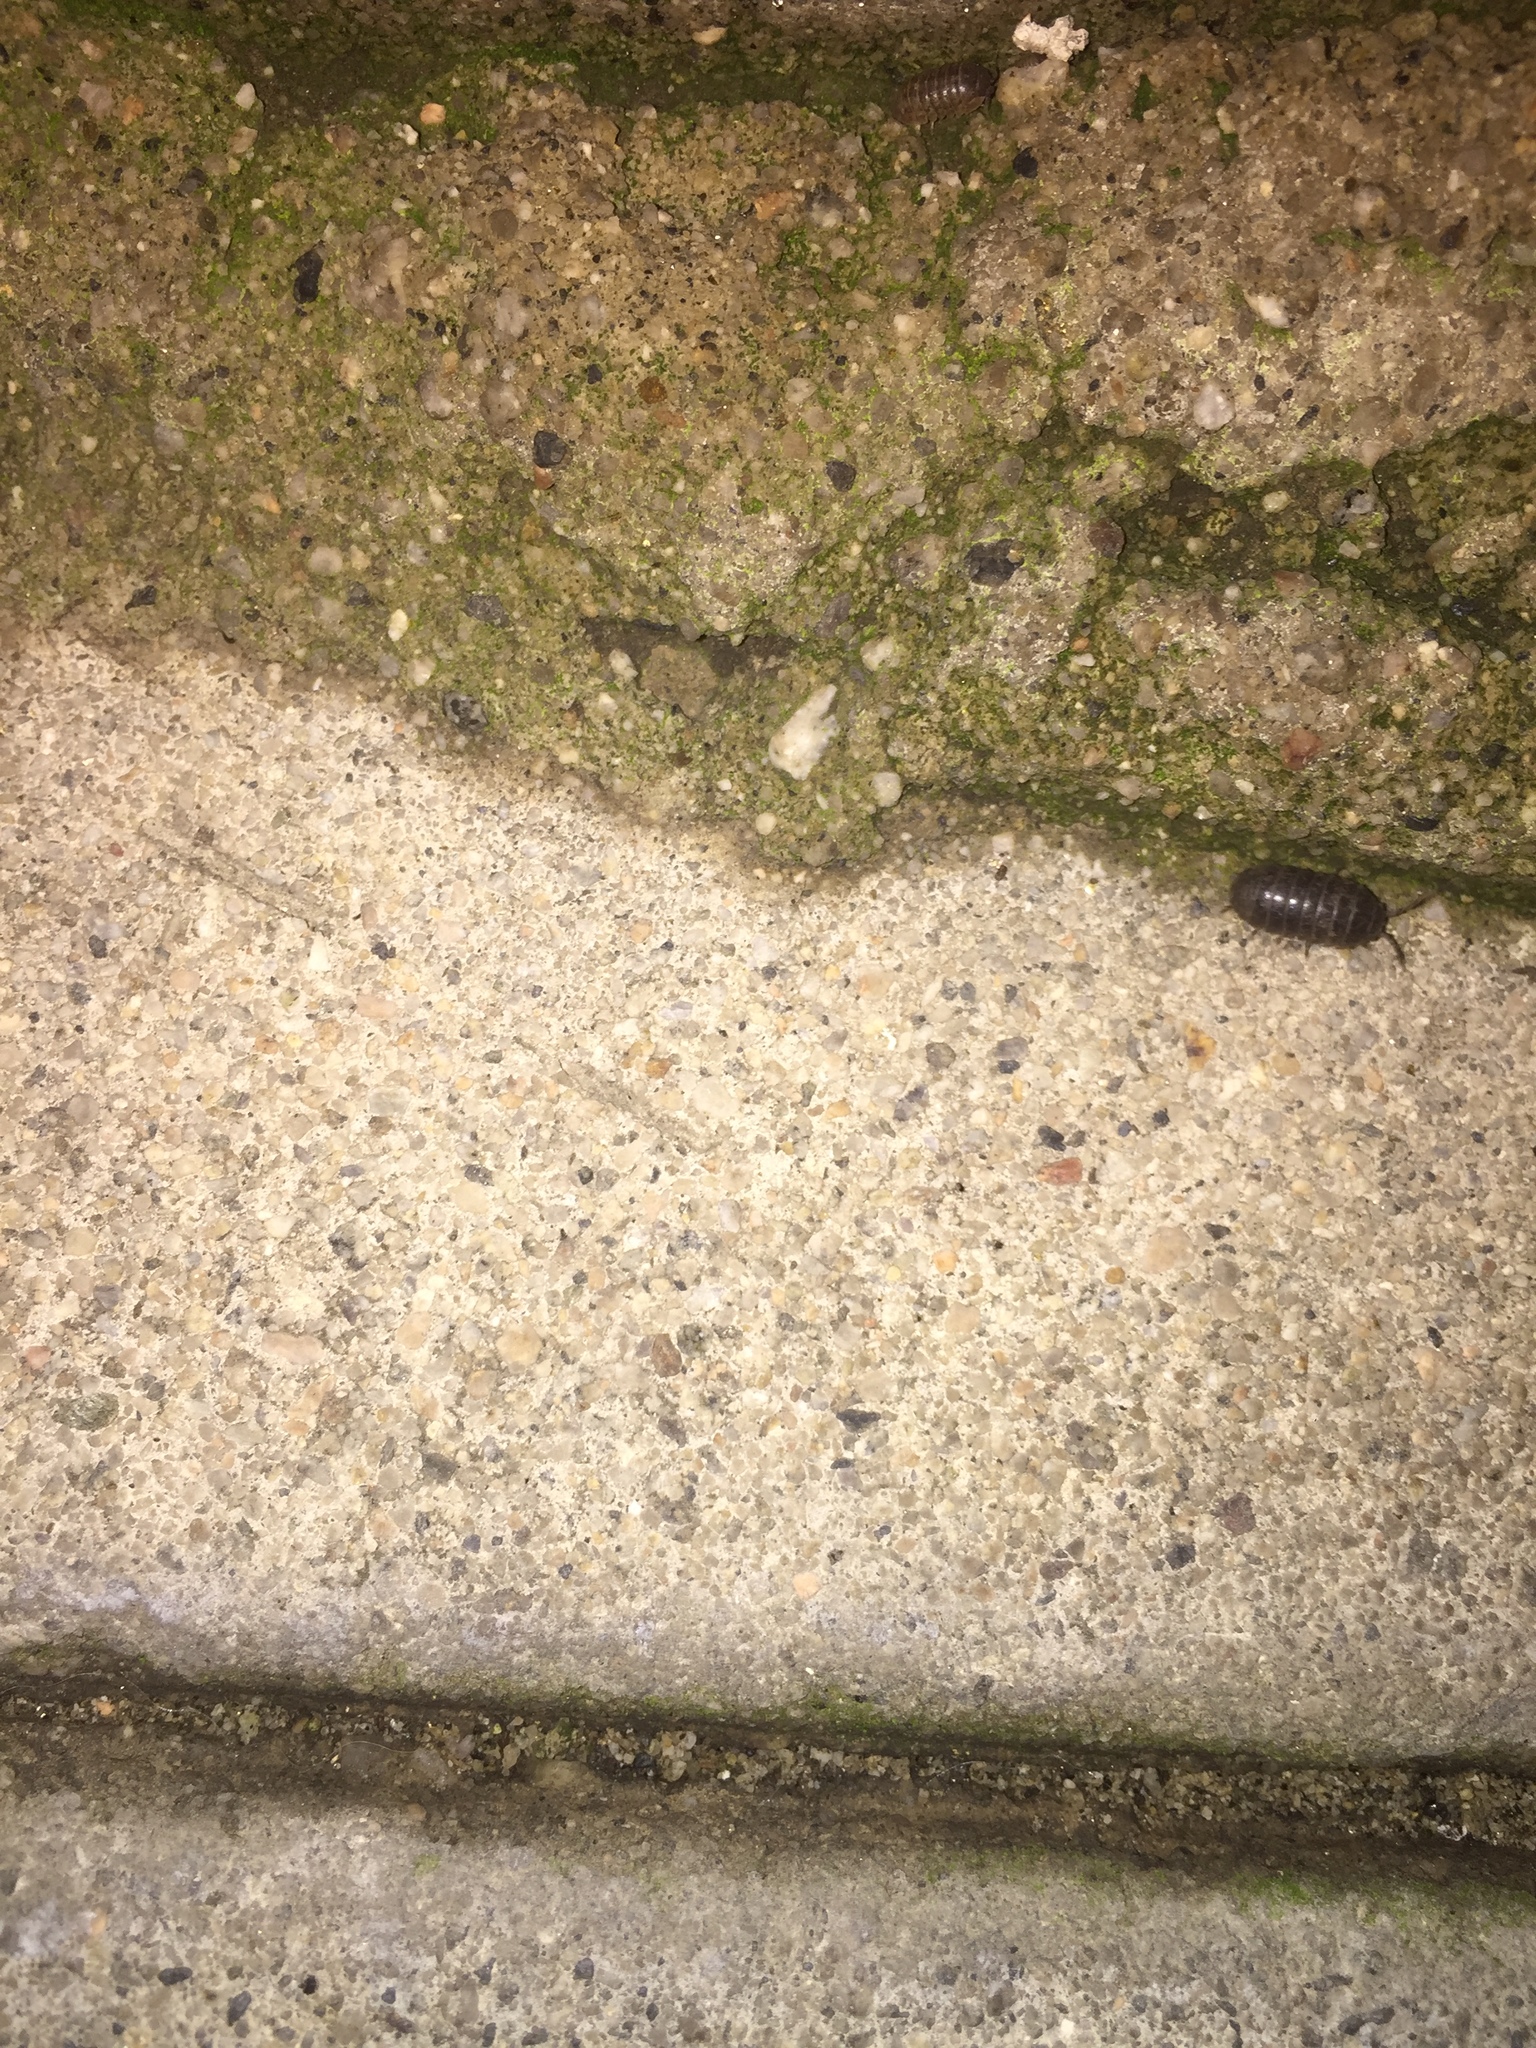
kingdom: Animalia
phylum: Arthropoda
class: Malacostraca
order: Isopoda
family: Armadillidiidae
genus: Armadillidium
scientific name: Armadillidium vulgare
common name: Common pill woodlouse
